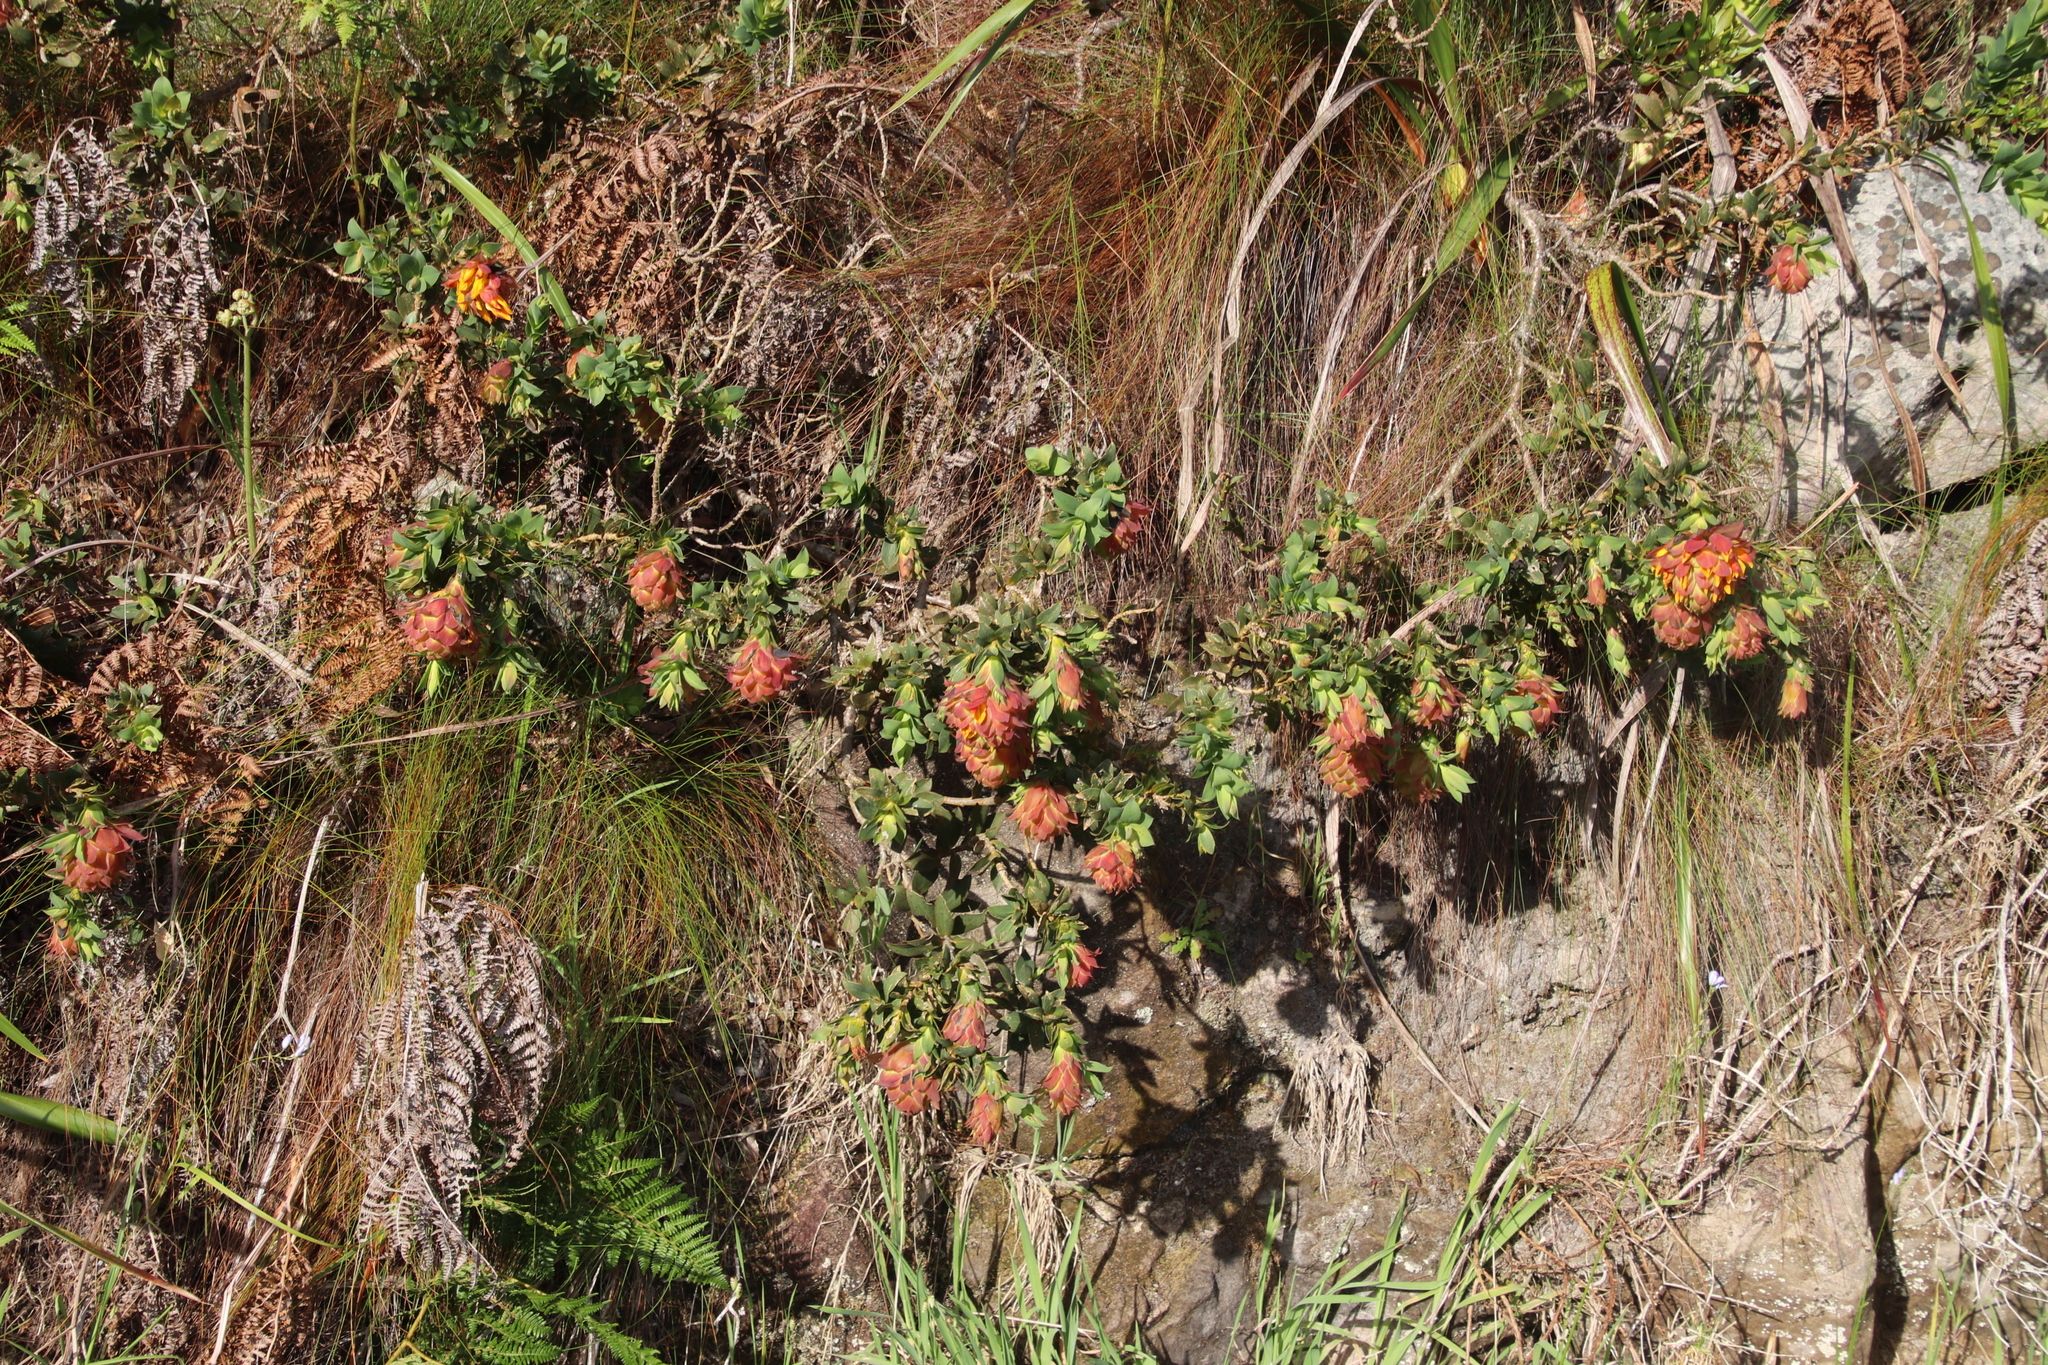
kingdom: Plantae
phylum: Tracheophyta
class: Magnoliopsida
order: Fabales
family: Fabaceae
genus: Liparia
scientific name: Liparia splendens
